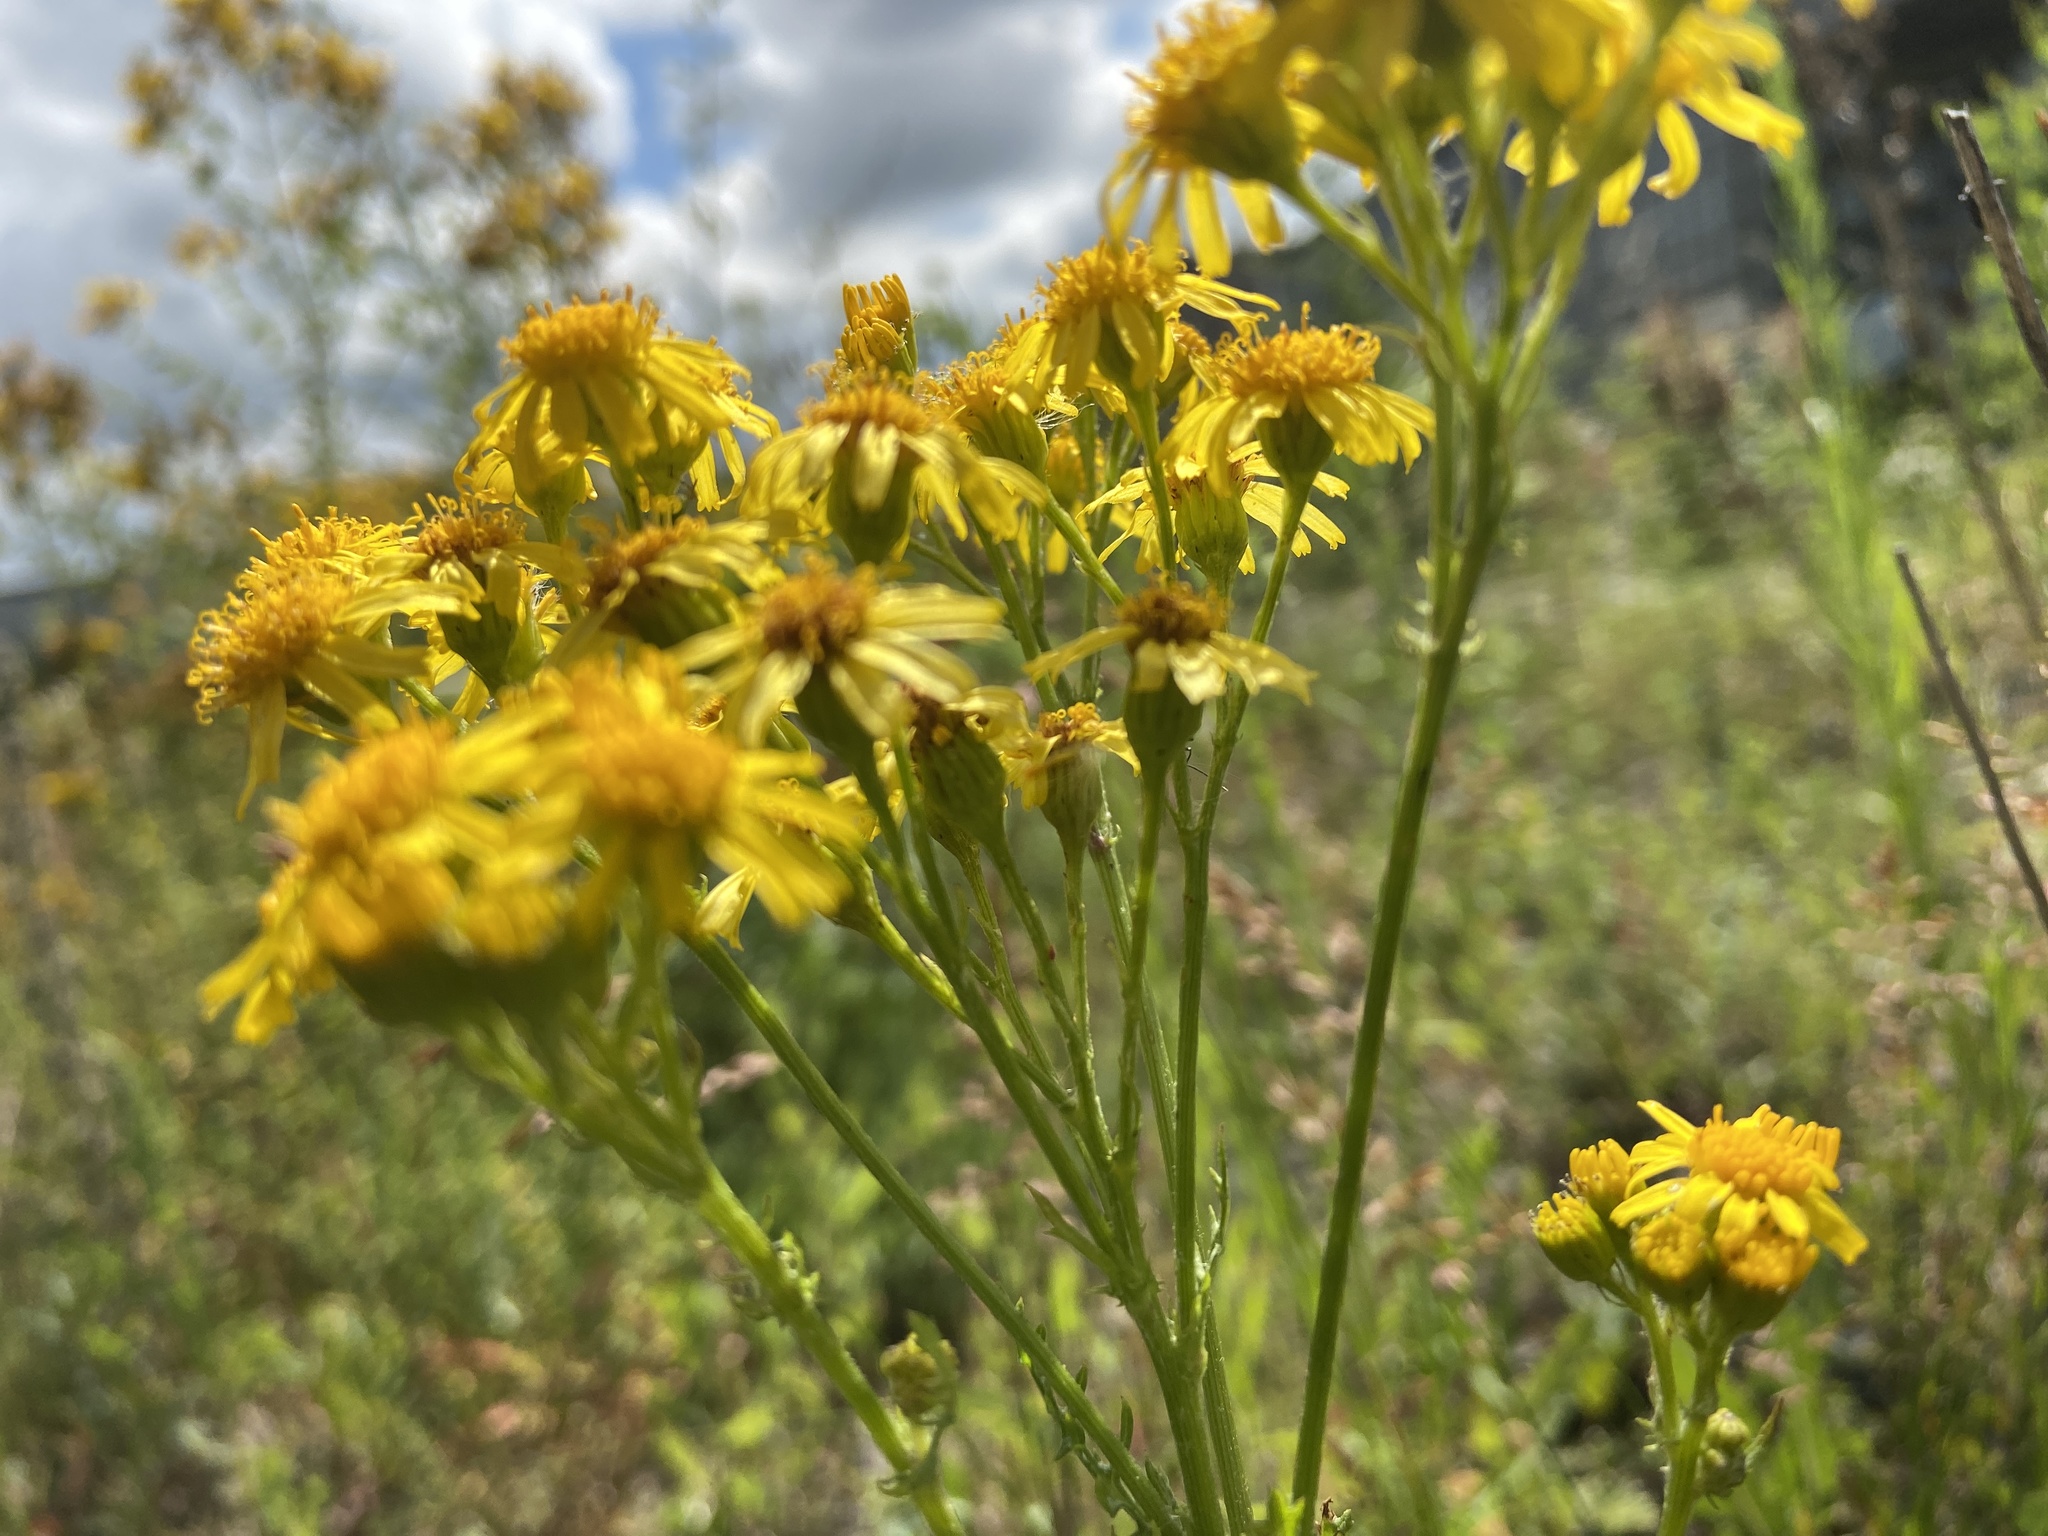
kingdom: Plantae
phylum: Tracheophyta
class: Magnoliopsida
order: Asterales
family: Asteraceae
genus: Jacobaea
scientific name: Jacobaea vulgaris
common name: Stinking willie
